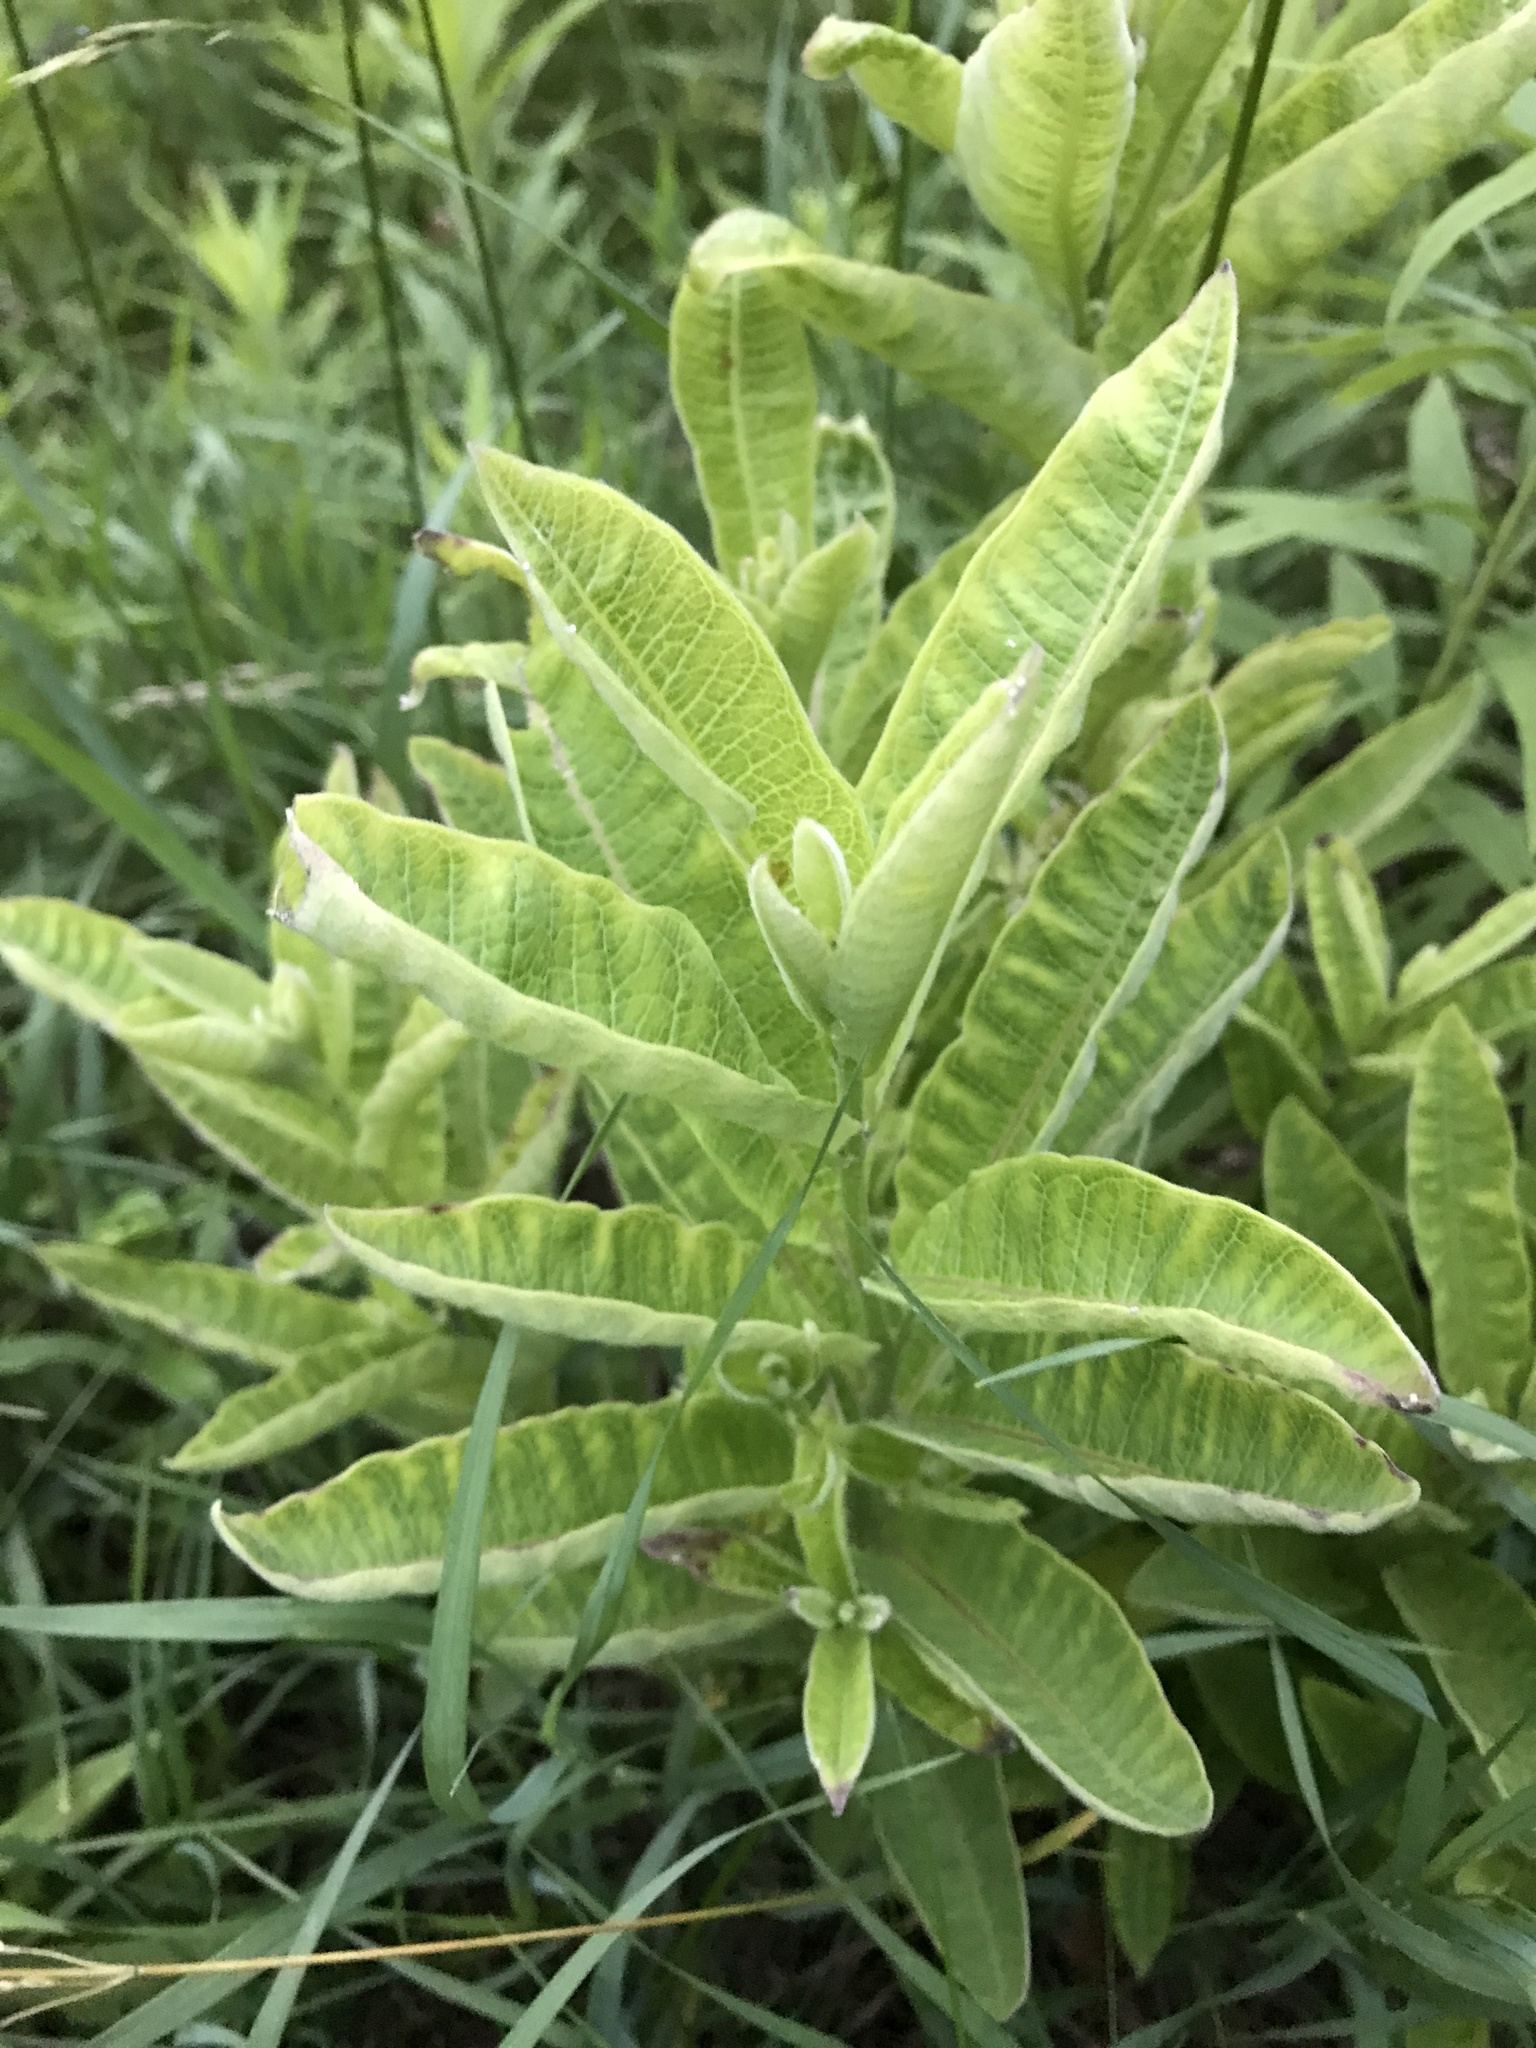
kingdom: Plantae
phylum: Tracheophyta
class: Magnoliopsida
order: Gentianales
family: Apocynaceae
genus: Asclepias
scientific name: Asclepias syriaca
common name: Common milkweed
